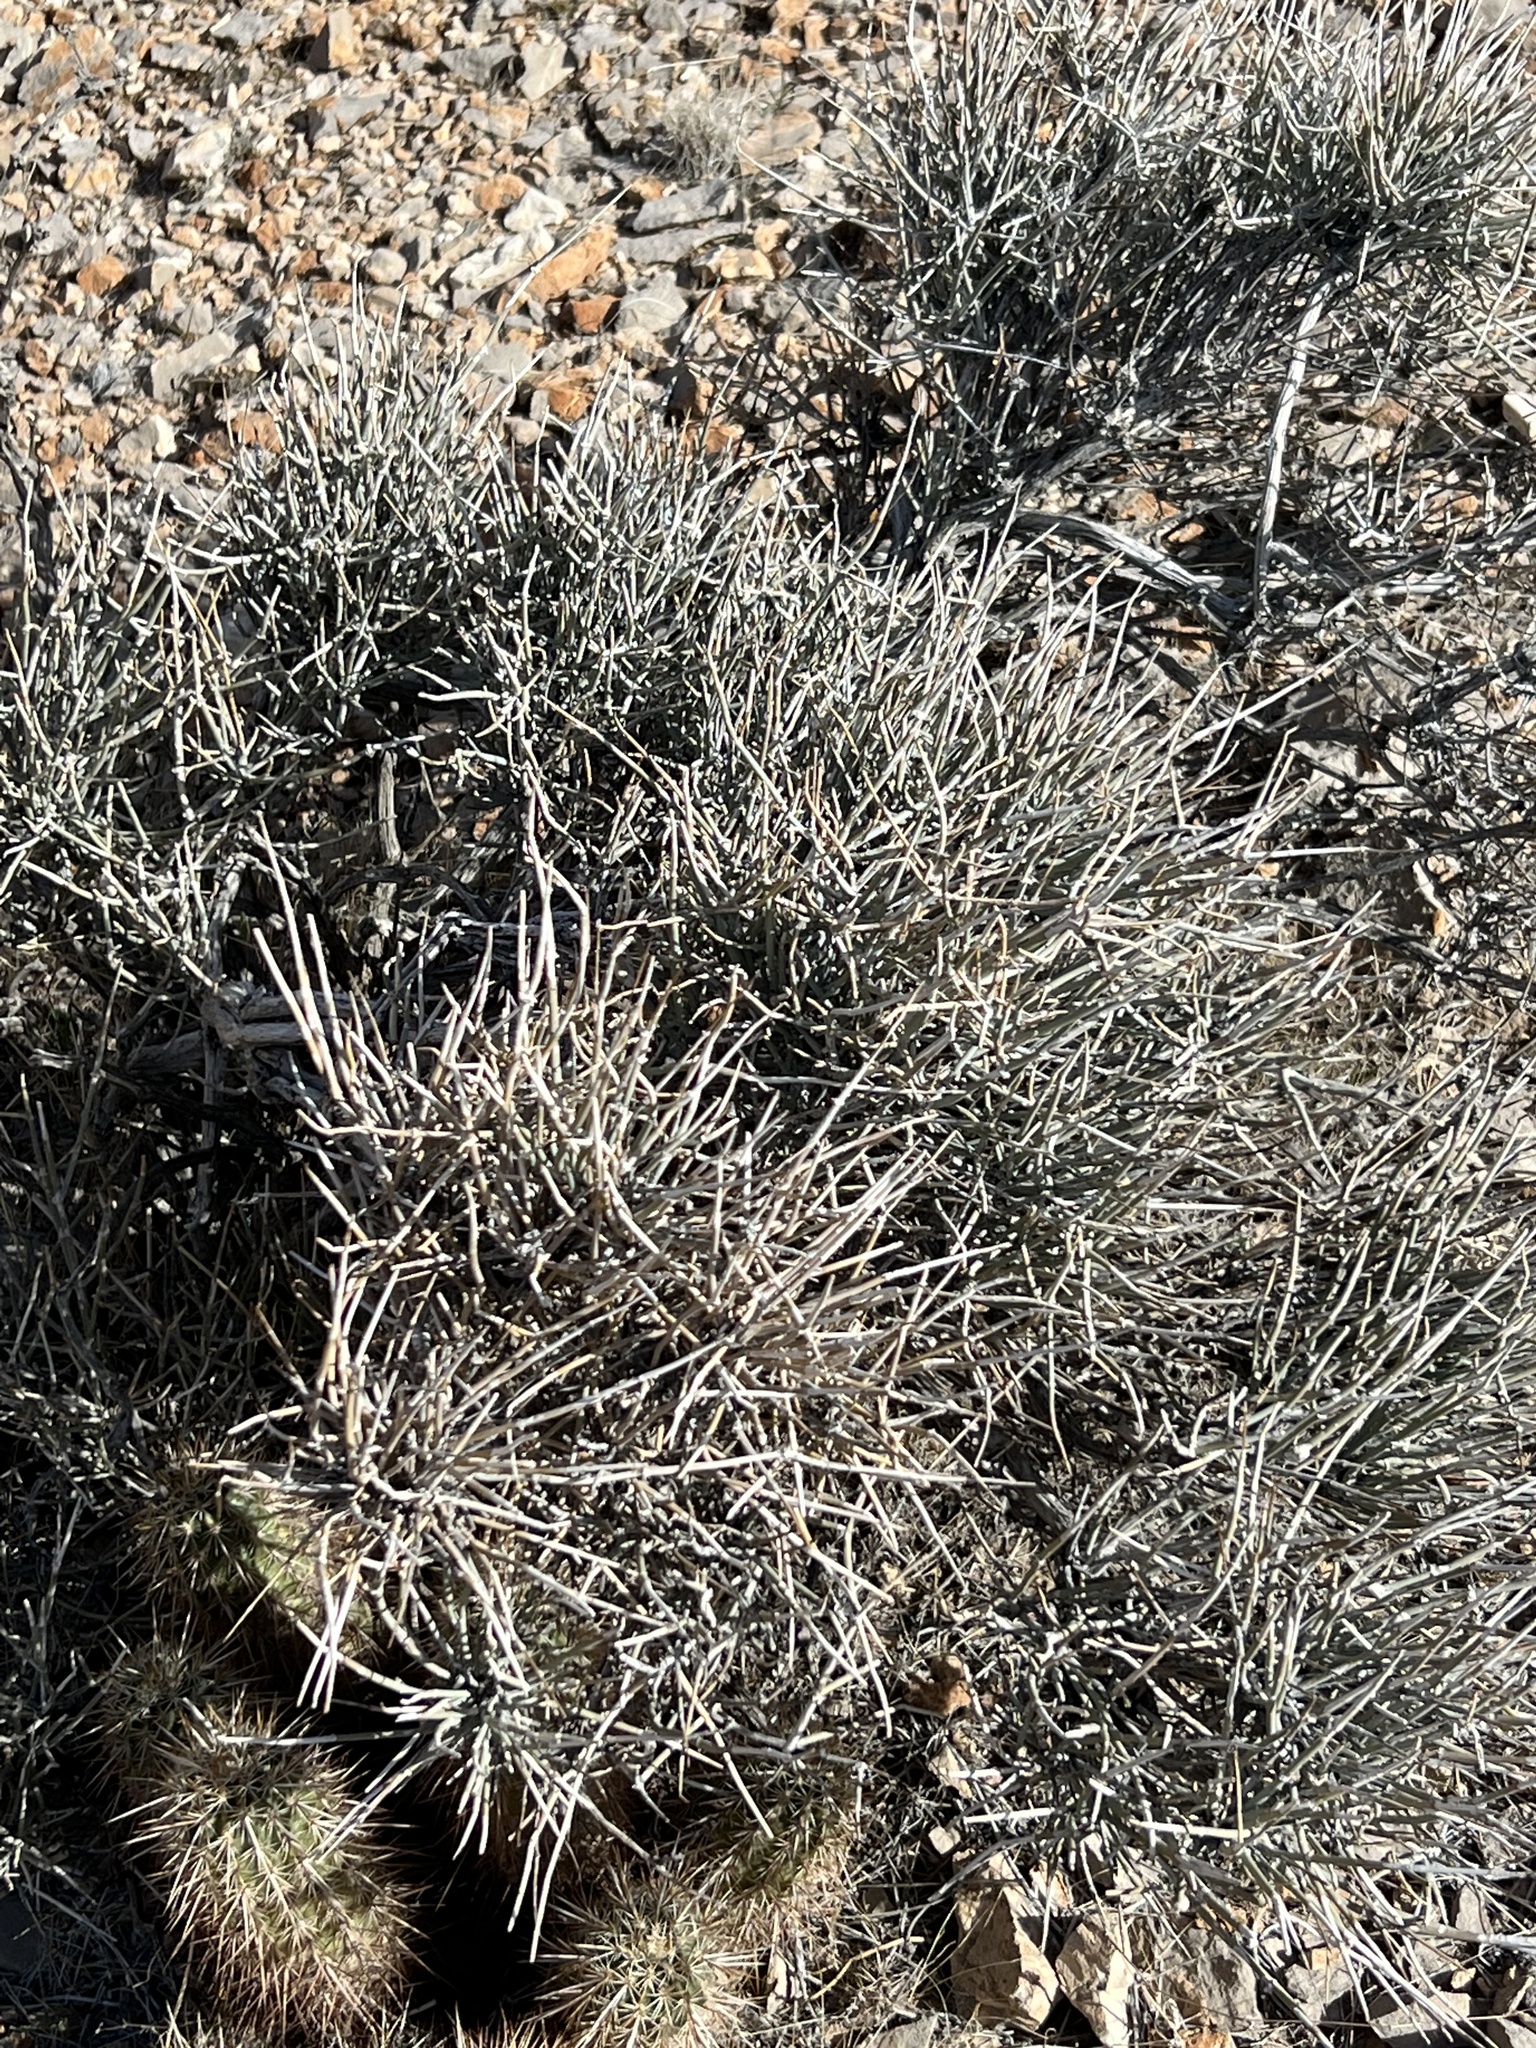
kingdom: Plantae
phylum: Tracheophyta
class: Gnetopsida
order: Ephedrales
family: Ephedraceae
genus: Ephedra
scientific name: Ephedra nevadensis
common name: Gray ephedra
